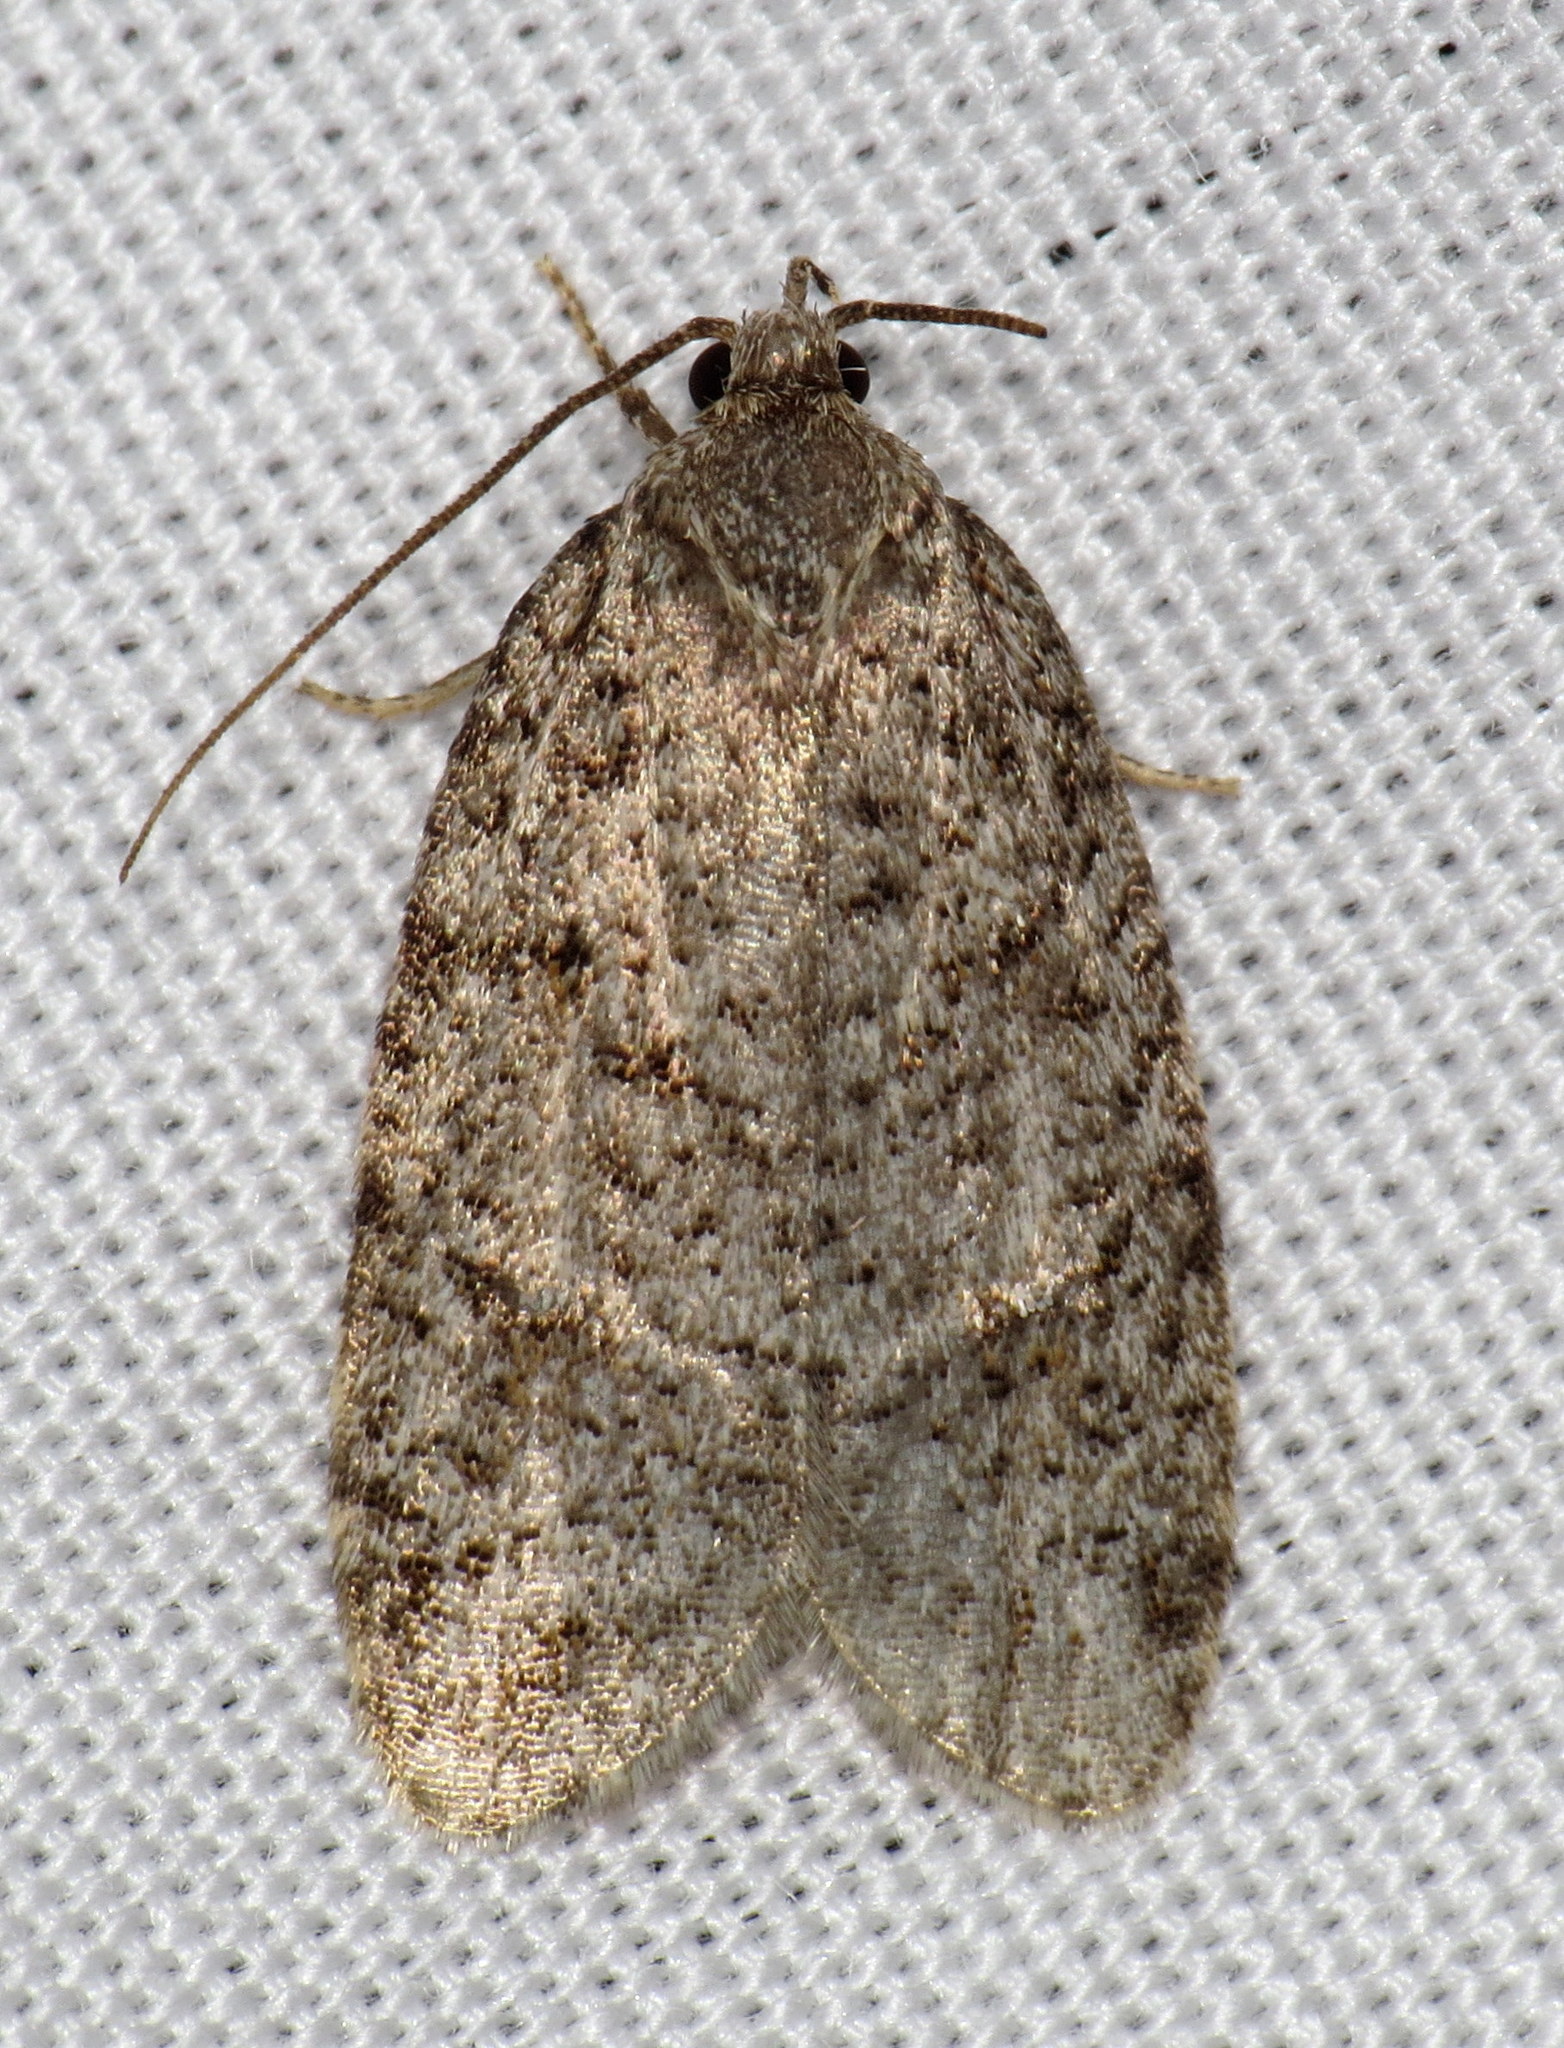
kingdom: Animalia
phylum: Arthropoda
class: Insecta
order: Lepidoptera
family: Depressariidae
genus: Bibarrambla
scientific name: Bibarrambla allenella
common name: Bog bibarrambla moth
